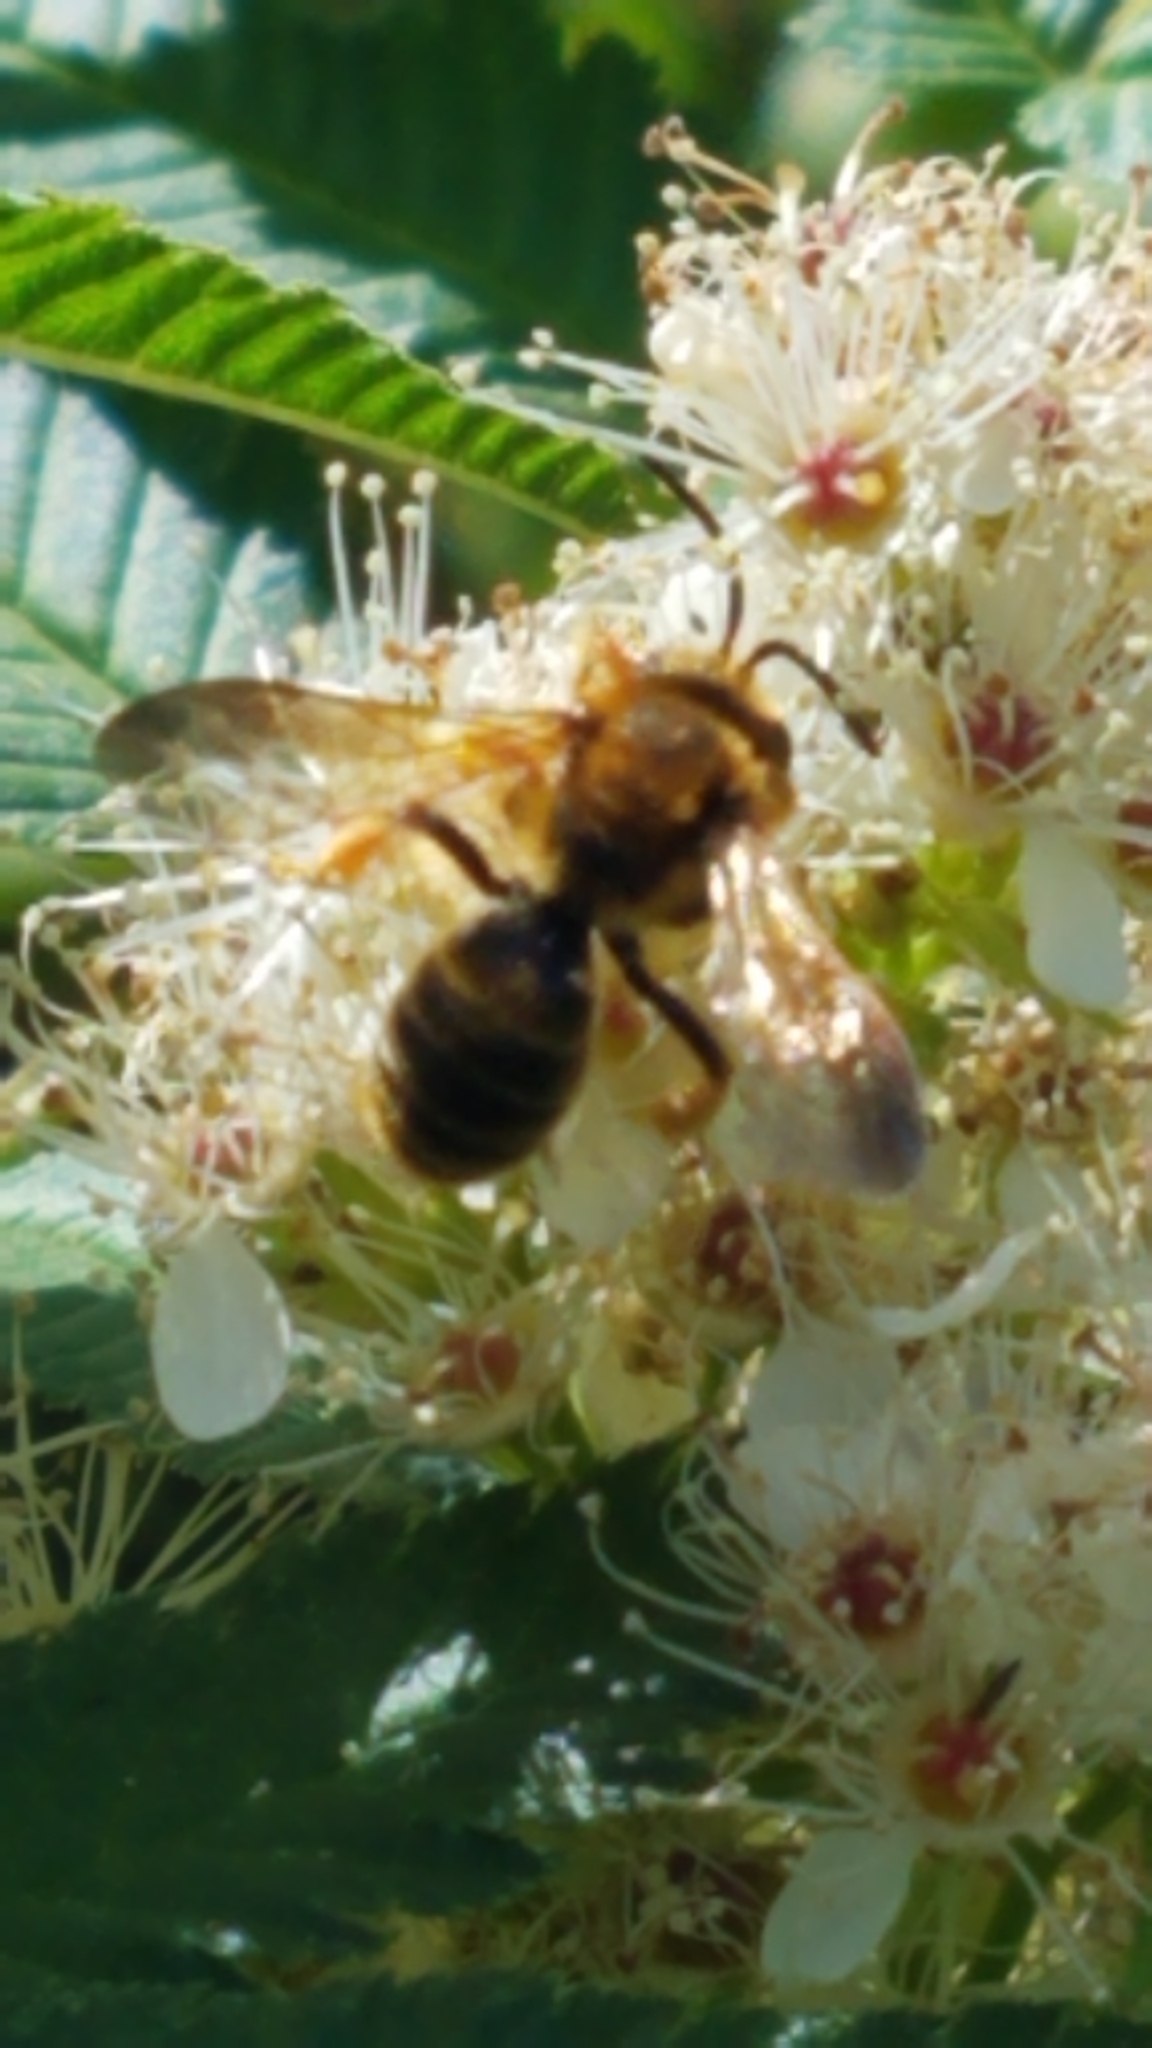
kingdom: Animalia
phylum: Arthropoda
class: Insecta
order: Hymenoptera
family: Andrenidae
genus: Andrena
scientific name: Andrena prunorum
